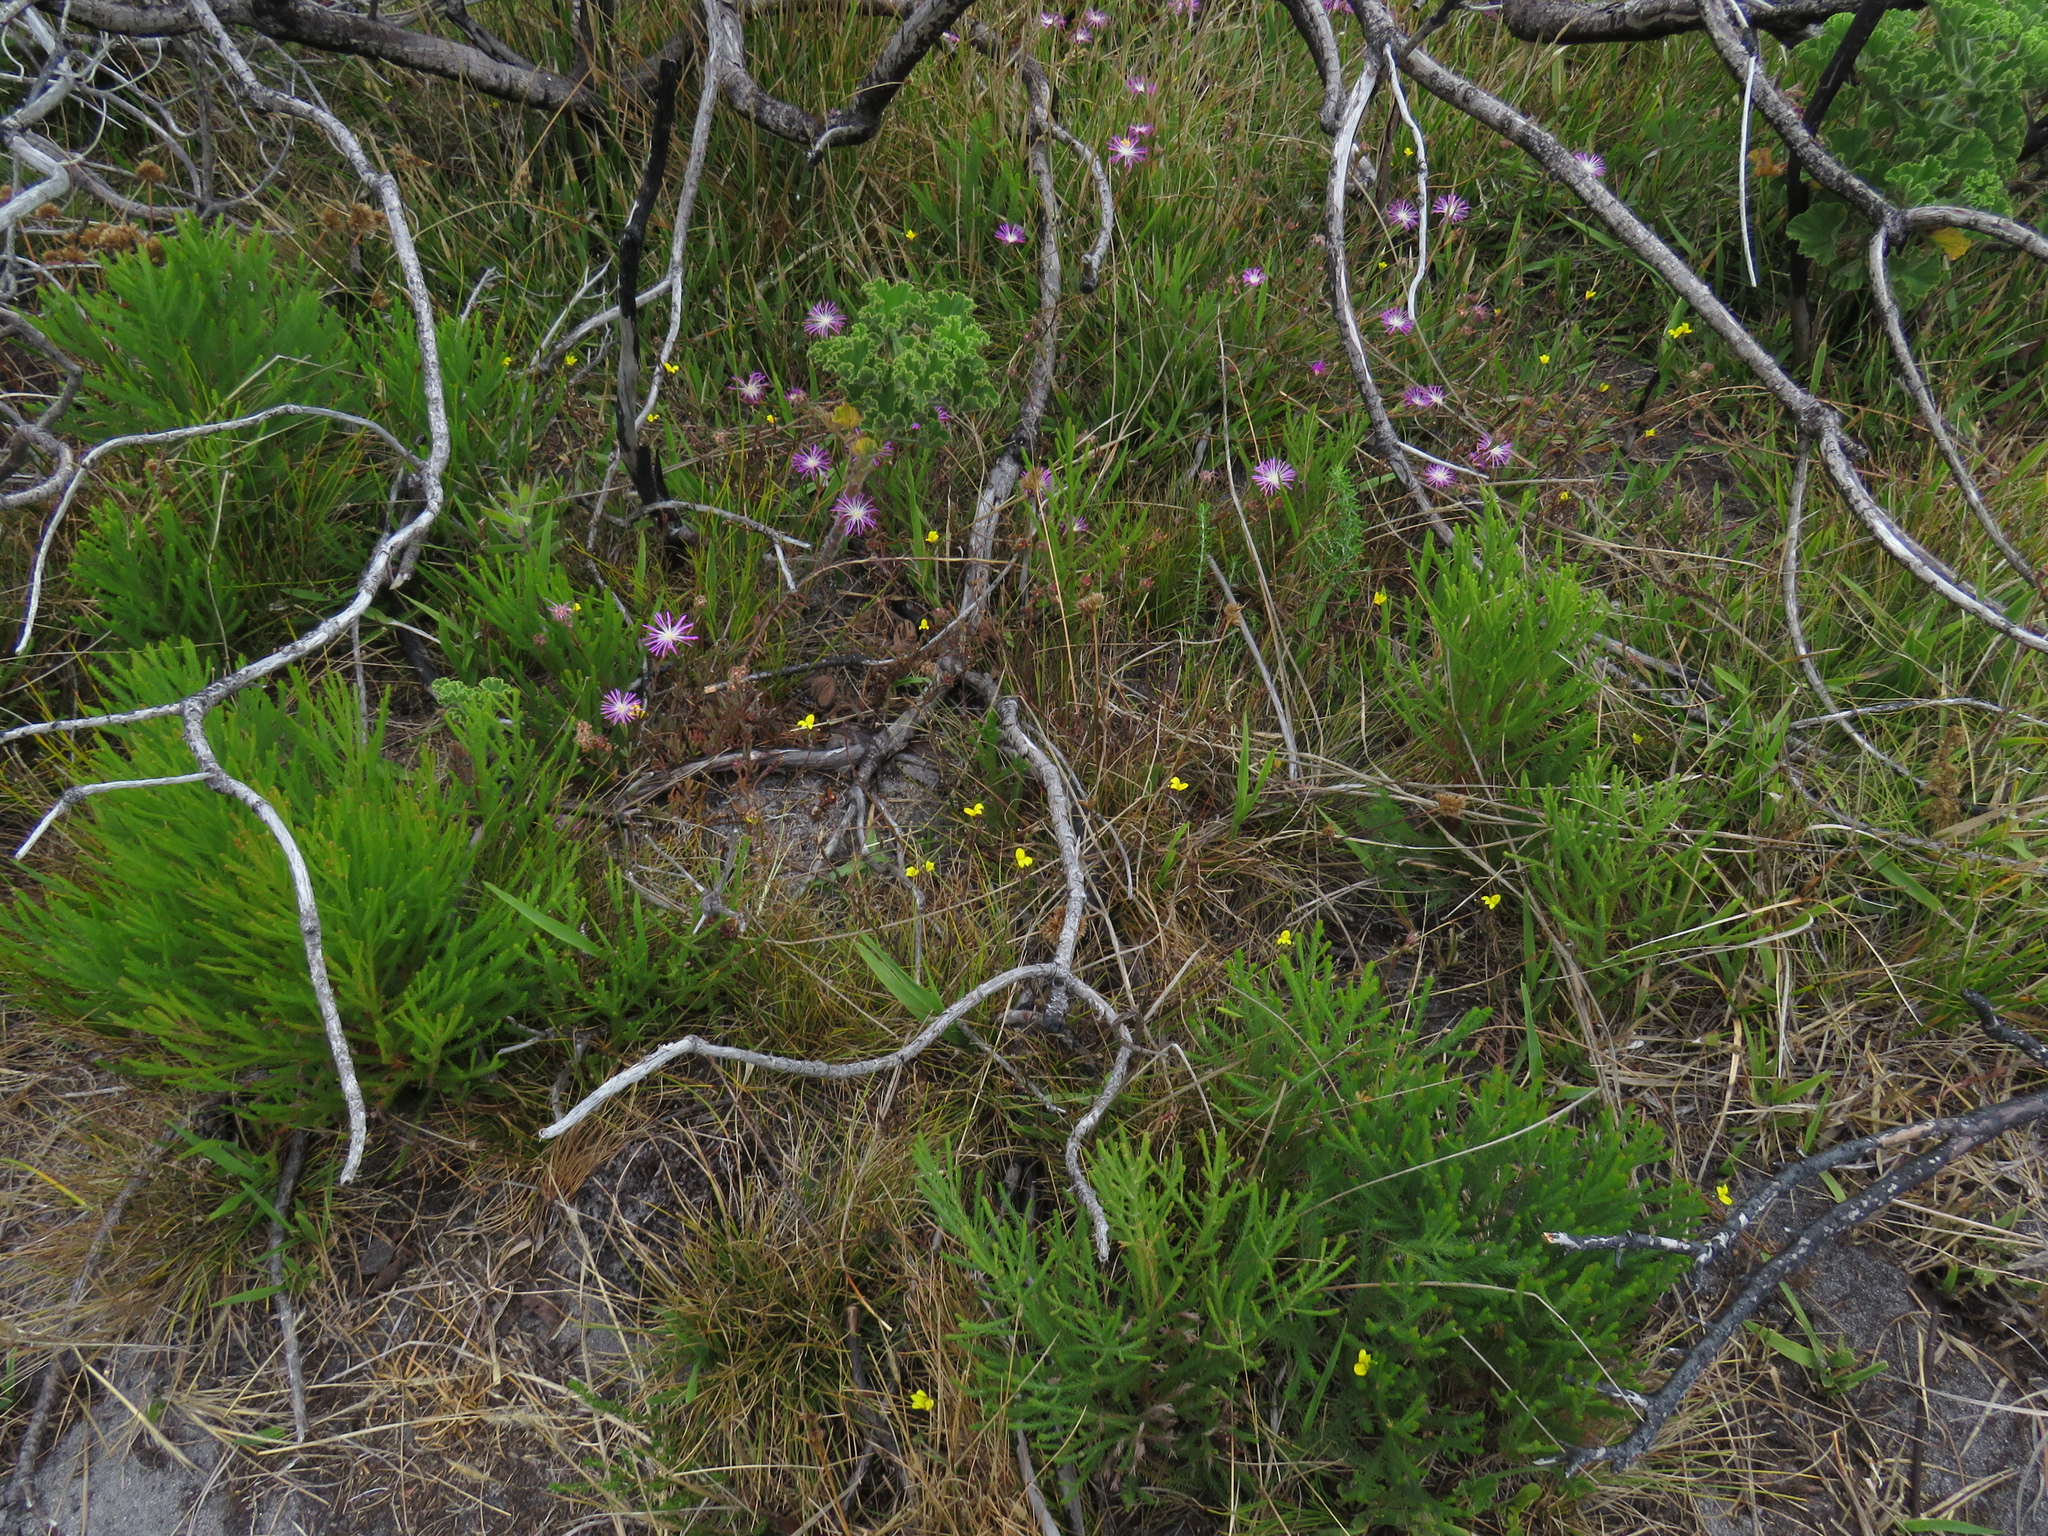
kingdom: Plantae
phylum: Tracheophyta
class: Magnoliopsida
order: Asterales
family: Campanulaceae
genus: Monopsis
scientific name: Monopsis lutea
